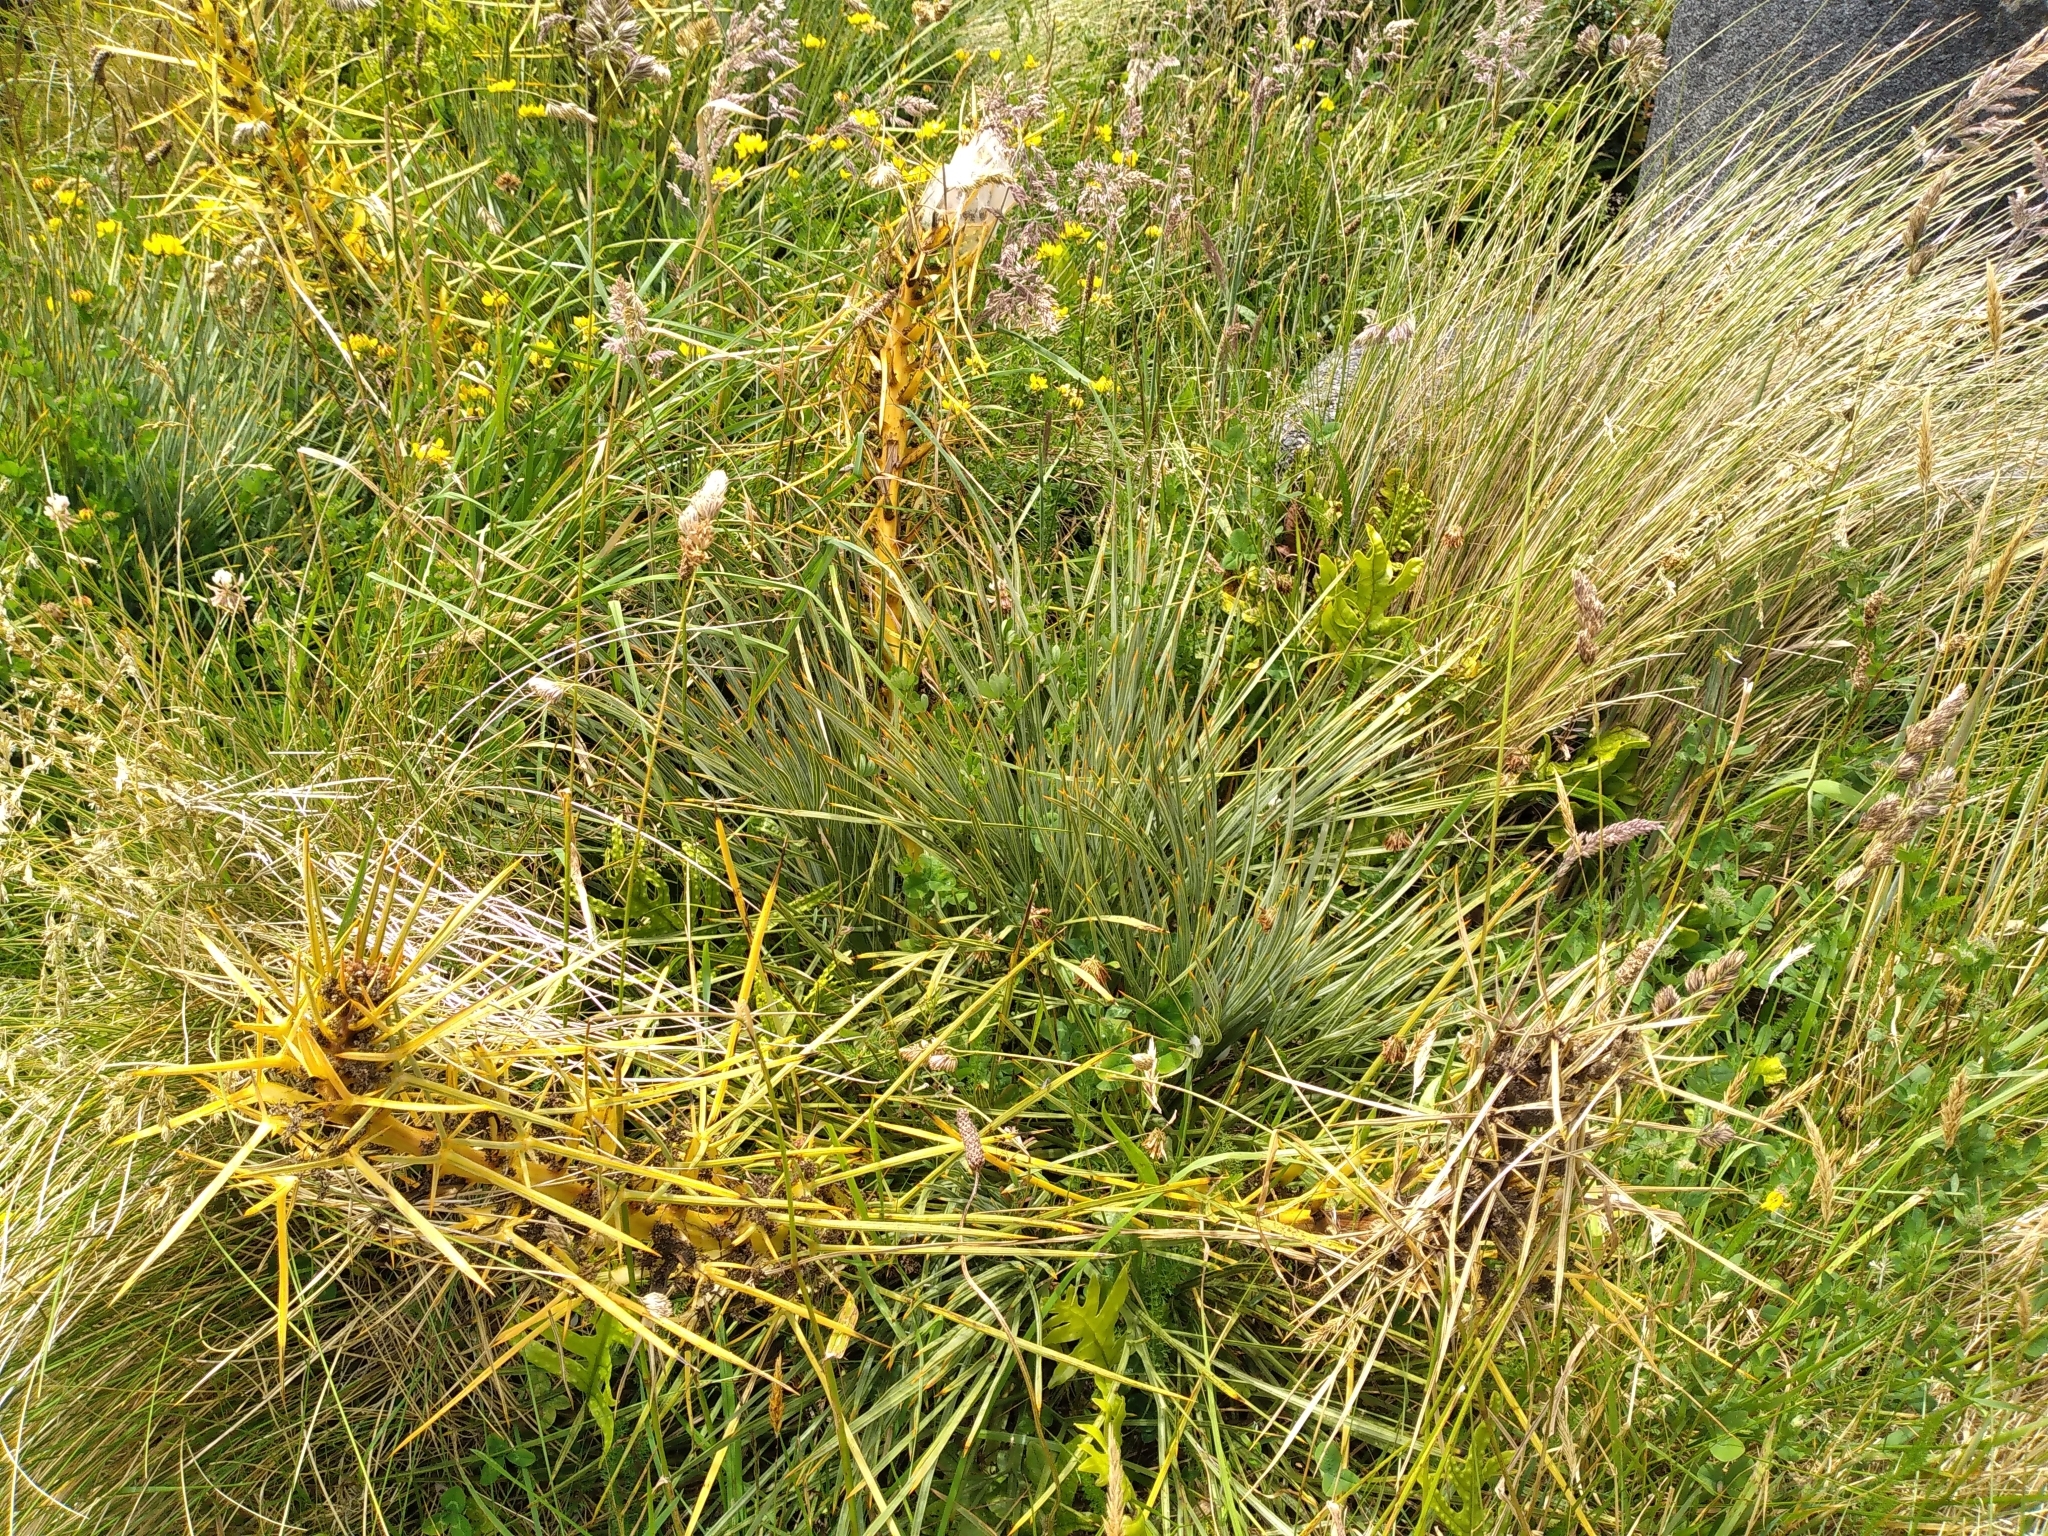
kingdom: Plantae
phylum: Tracheophyta
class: Magnoliopsida
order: Apiales
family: Apiaceae
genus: Aciphylla
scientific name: Aciphylla squarrosa
